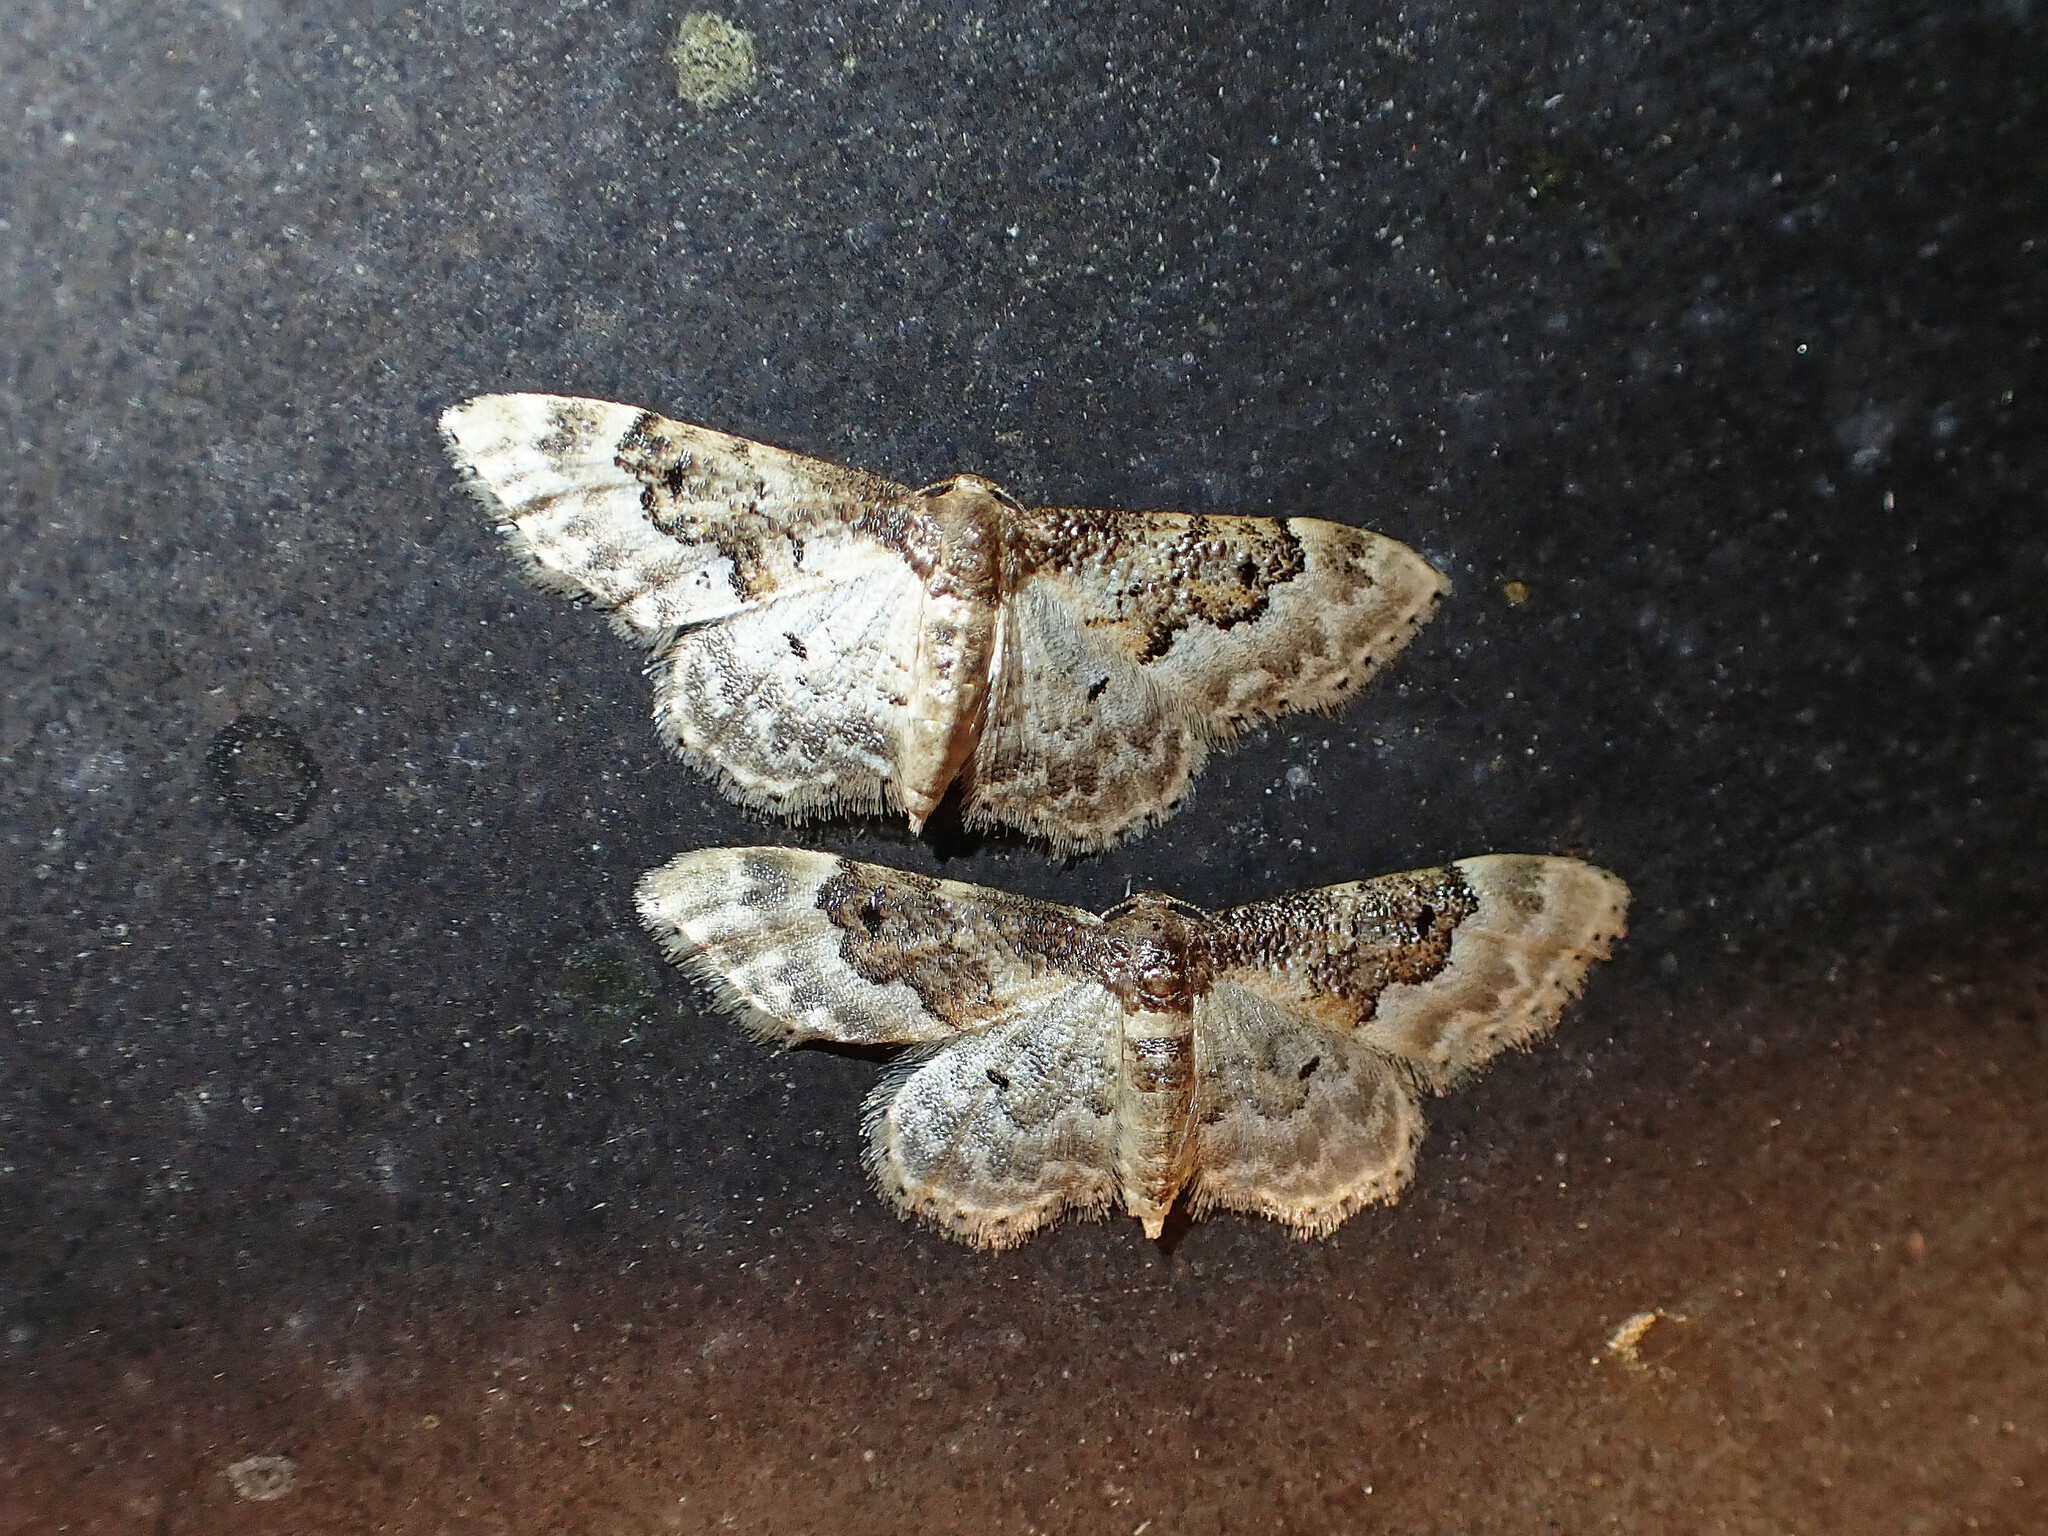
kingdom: Animalia
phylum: Arthropoda
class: Insecta
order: Lepidoptera
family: Geometridae
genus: Idaea
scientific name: Idaea rusticata
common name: Least carpet
